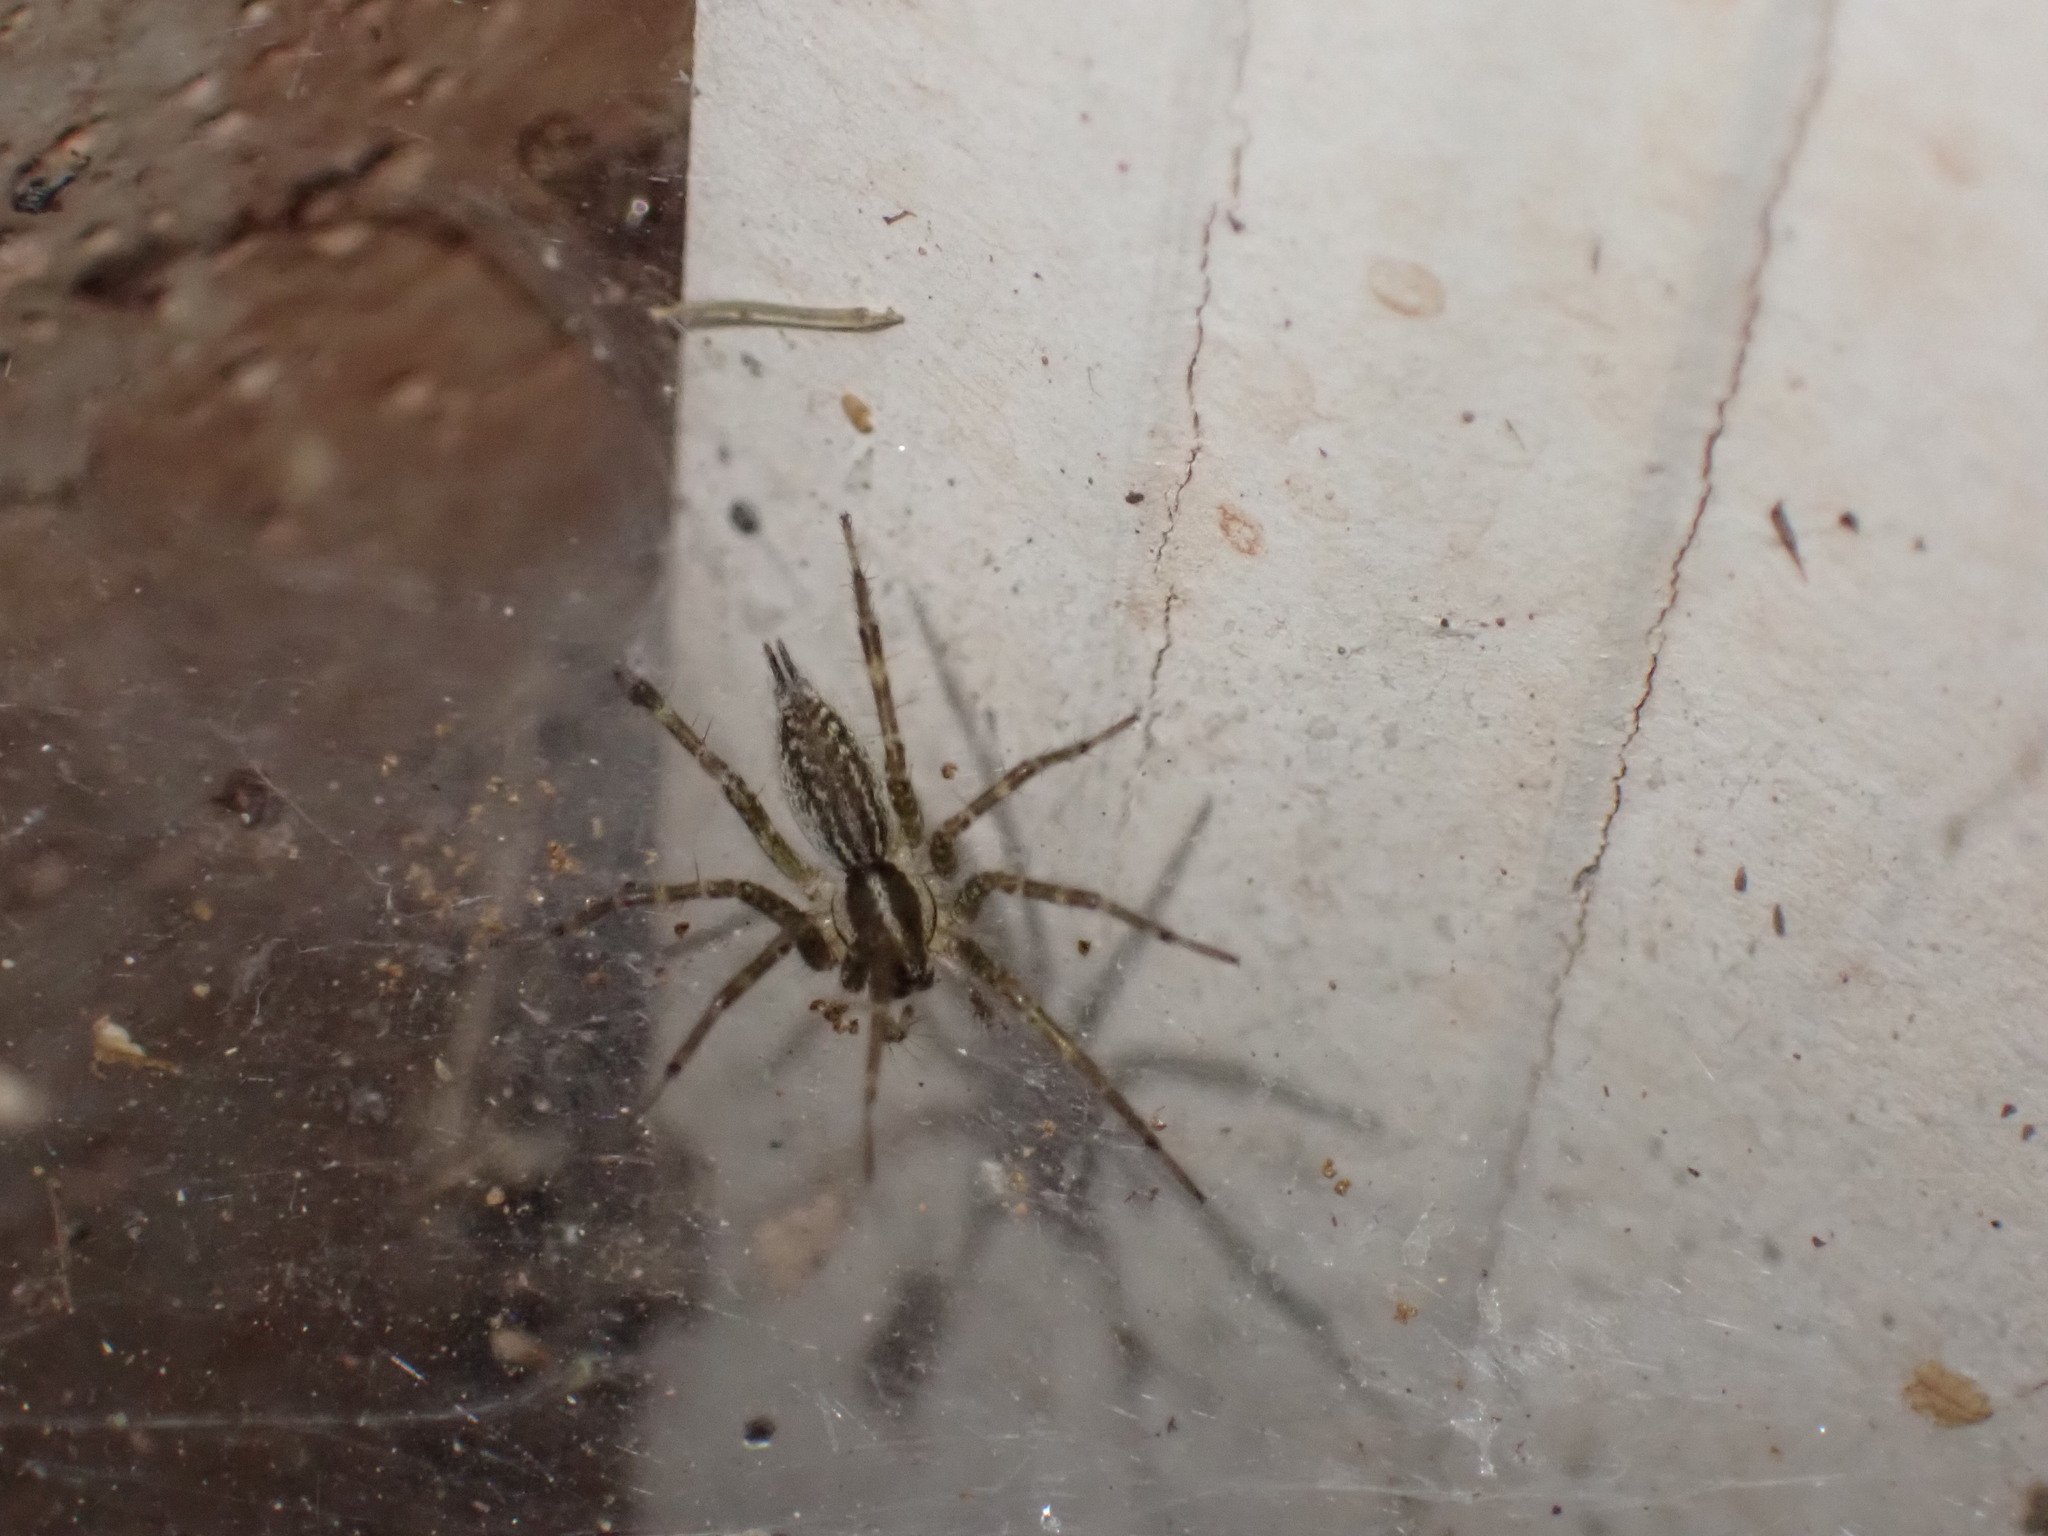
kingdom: Animalia
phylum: Arthropoda
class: Arachnida
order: Araneae
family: Agelenidae
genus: Agelenopsis
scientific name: Agelenopsis
